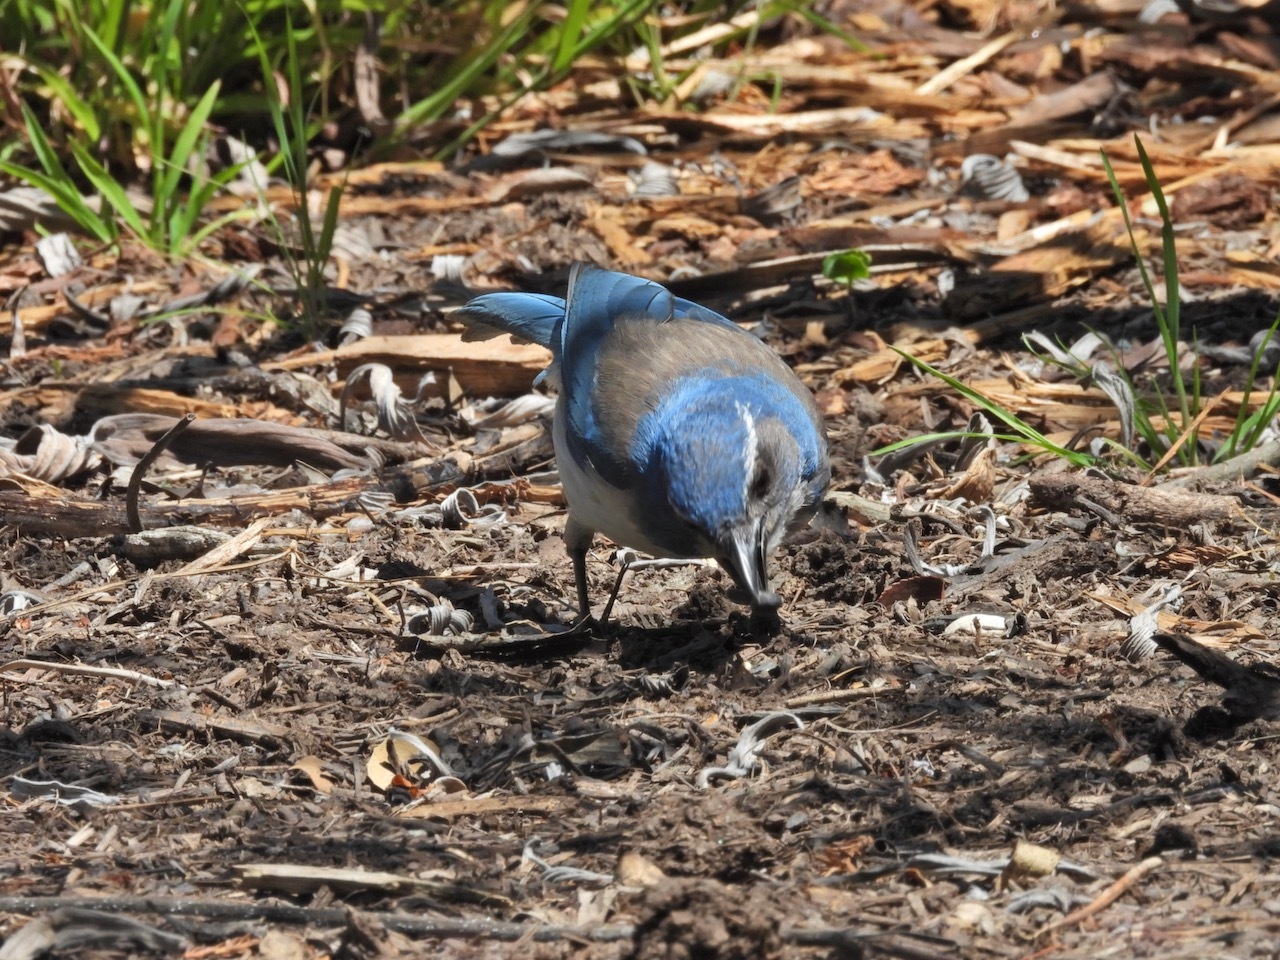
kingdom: Animalia
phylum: Chordata
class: Aves
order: Passeriformes
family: Corvidae
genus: Aphelocoma
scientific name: Aphelocoma californica
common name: California scrub-jay
